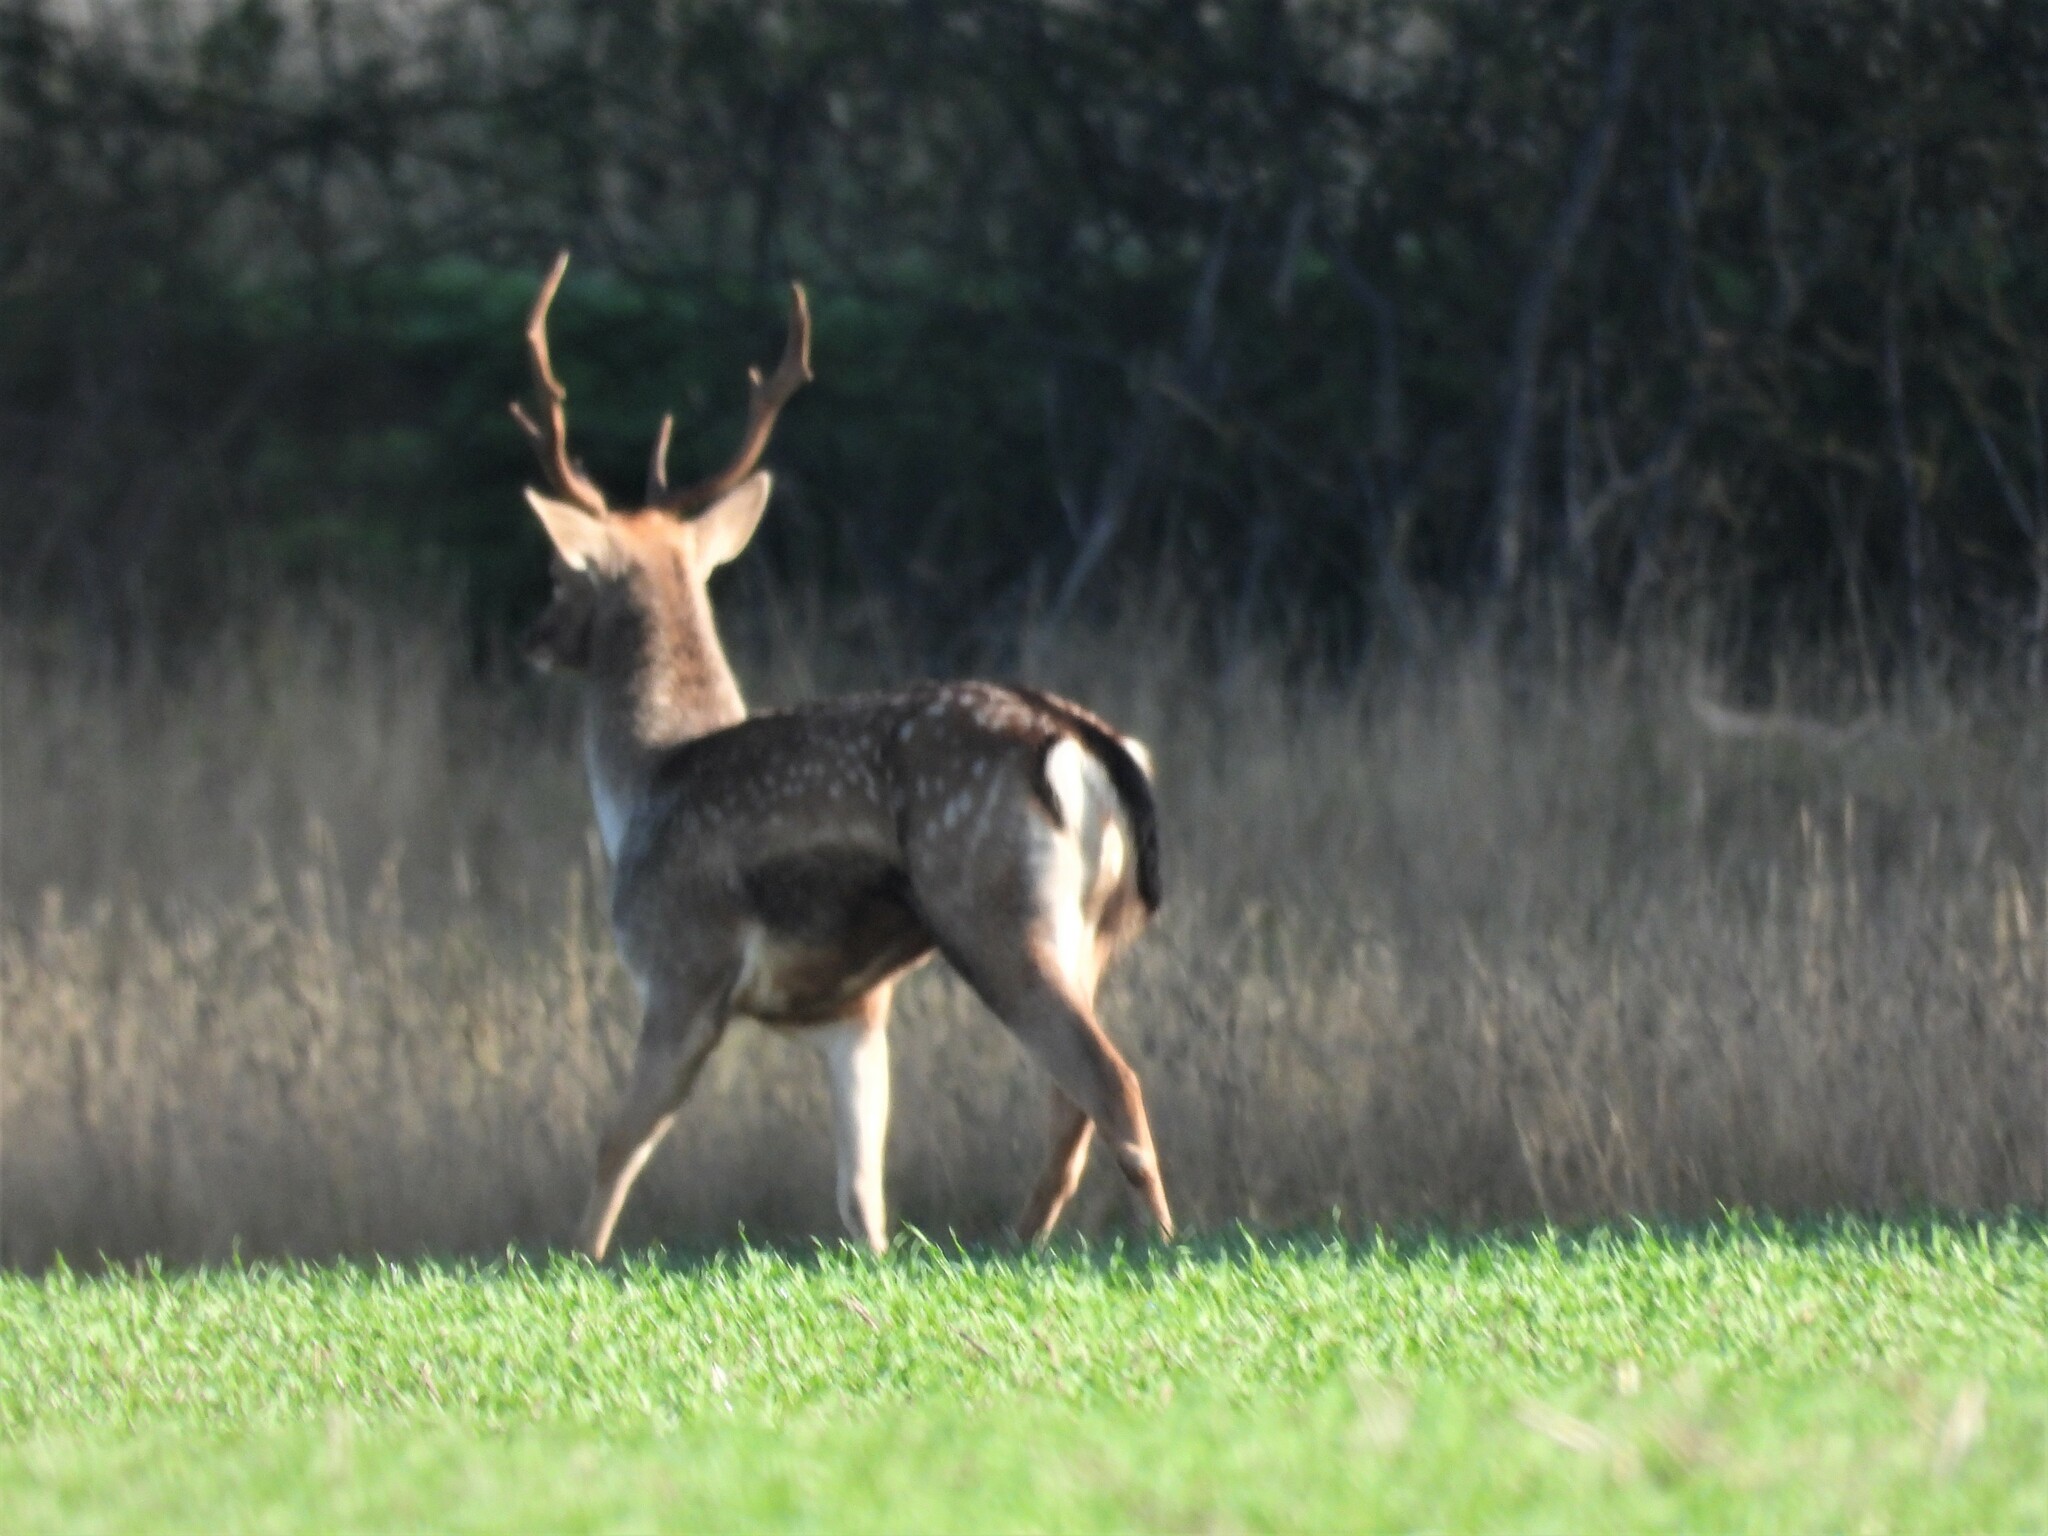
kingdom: Animalia
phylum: Chordata
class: Mammalia
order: Artiodactyla
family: Cervidae
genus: Dama
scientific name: Dama dama
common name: Fallow deer
